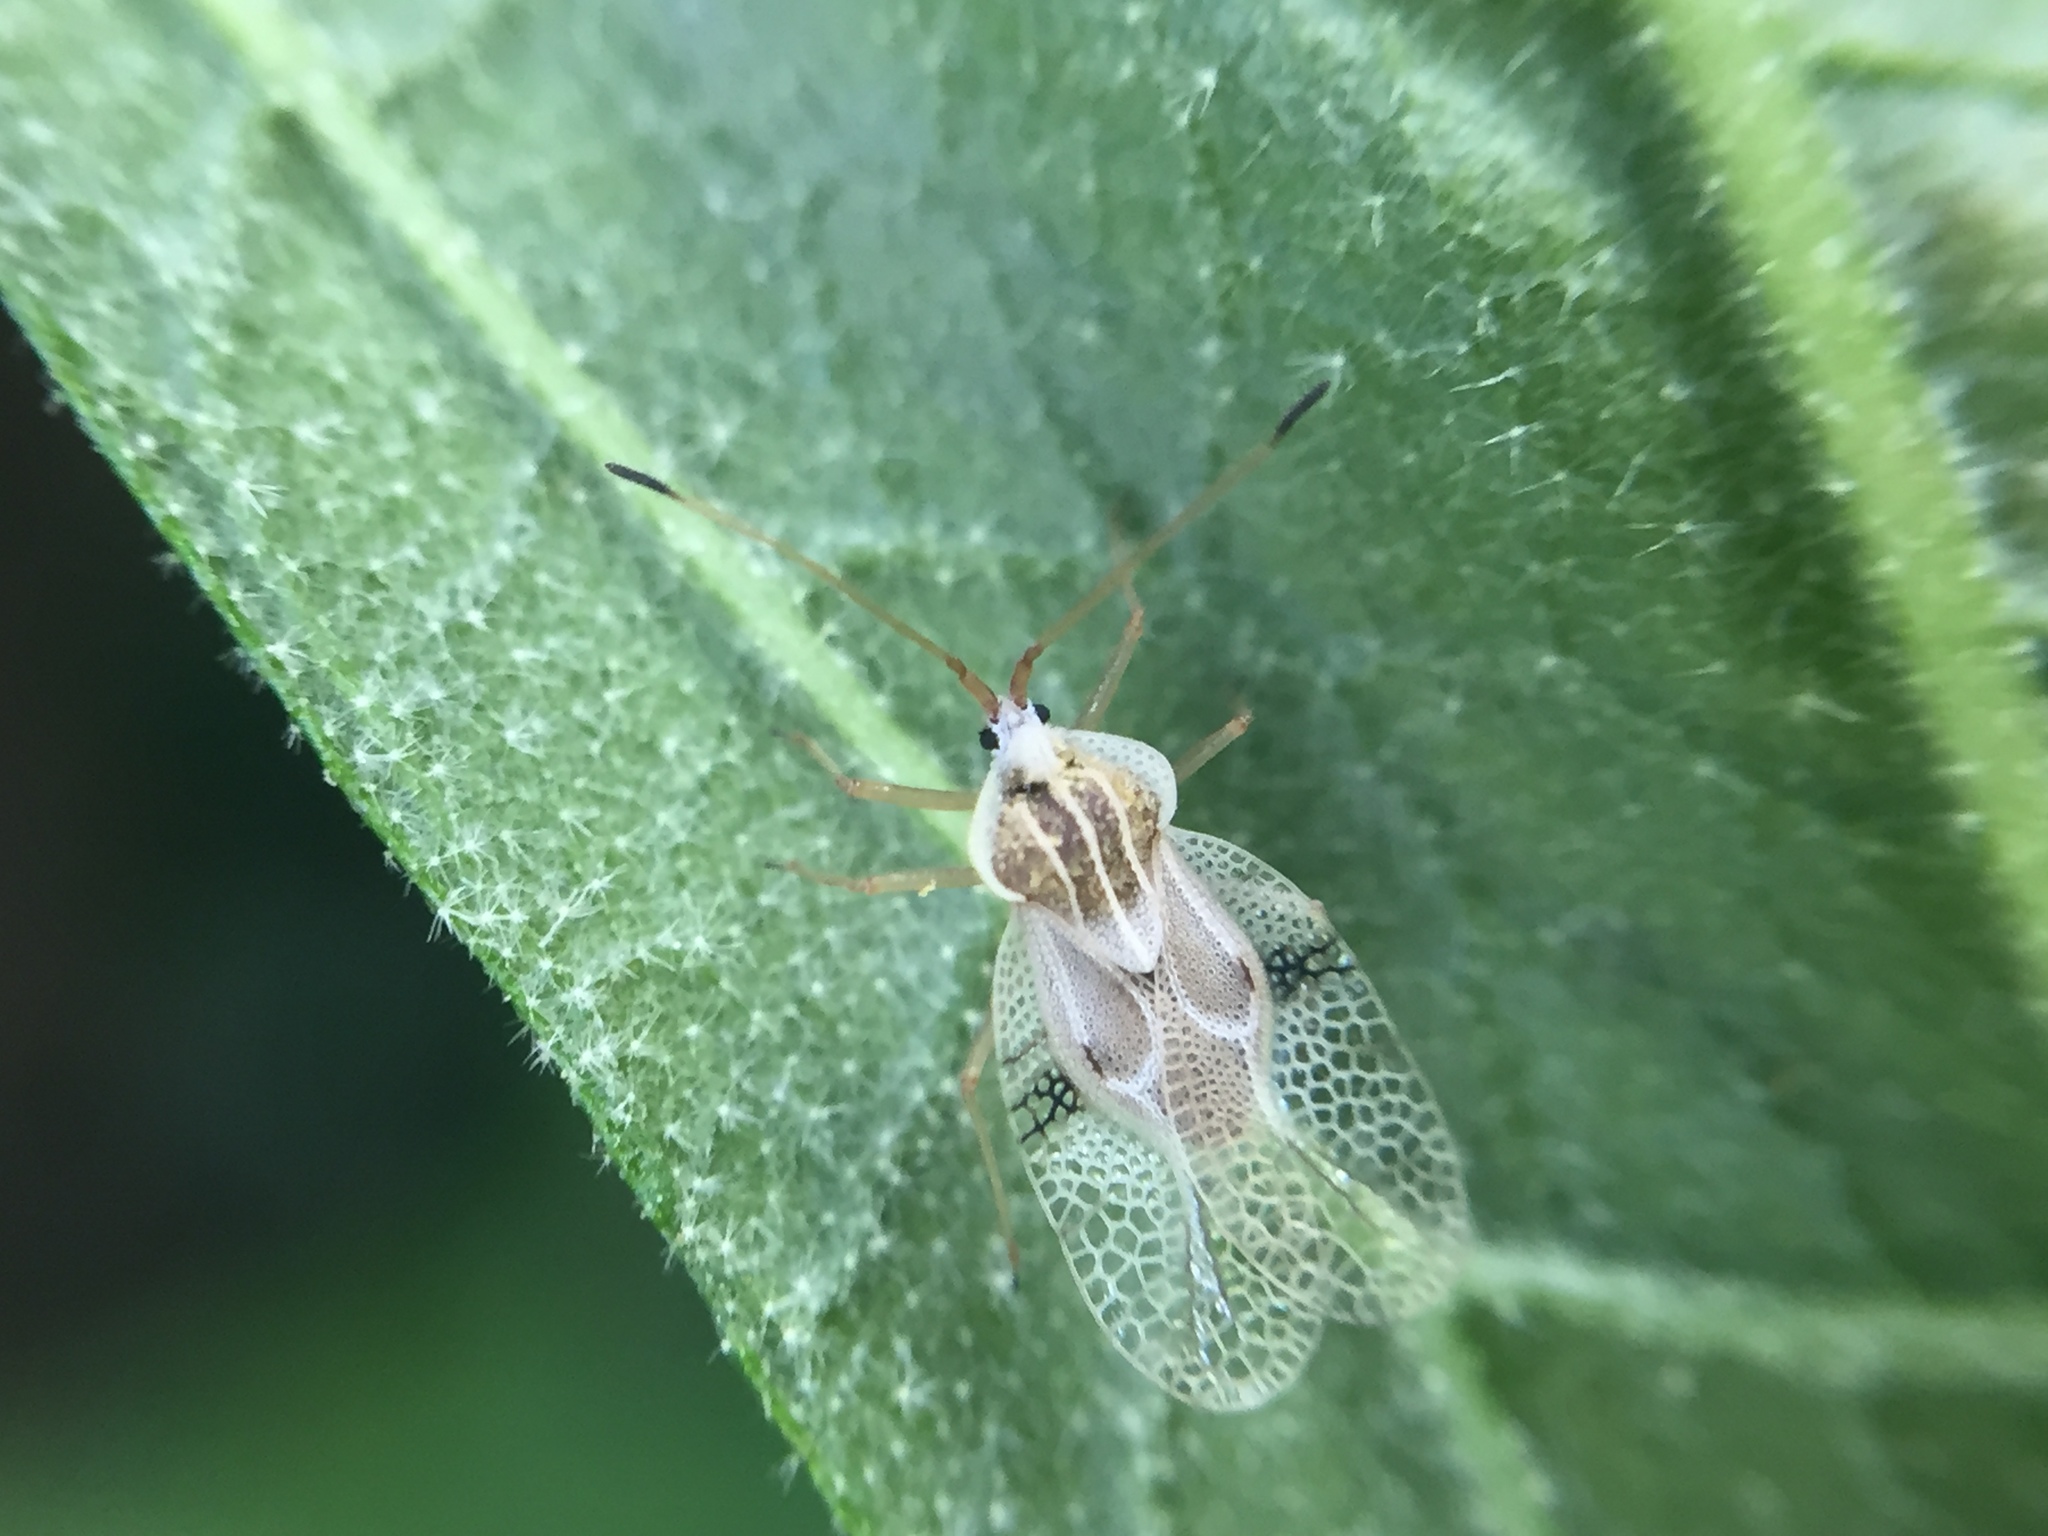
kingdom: Animalia
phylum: Arthropoda
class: Insecta
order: Hemiptera
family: Tingidae
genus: Gargaphia
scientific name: Gargaphia decoris
